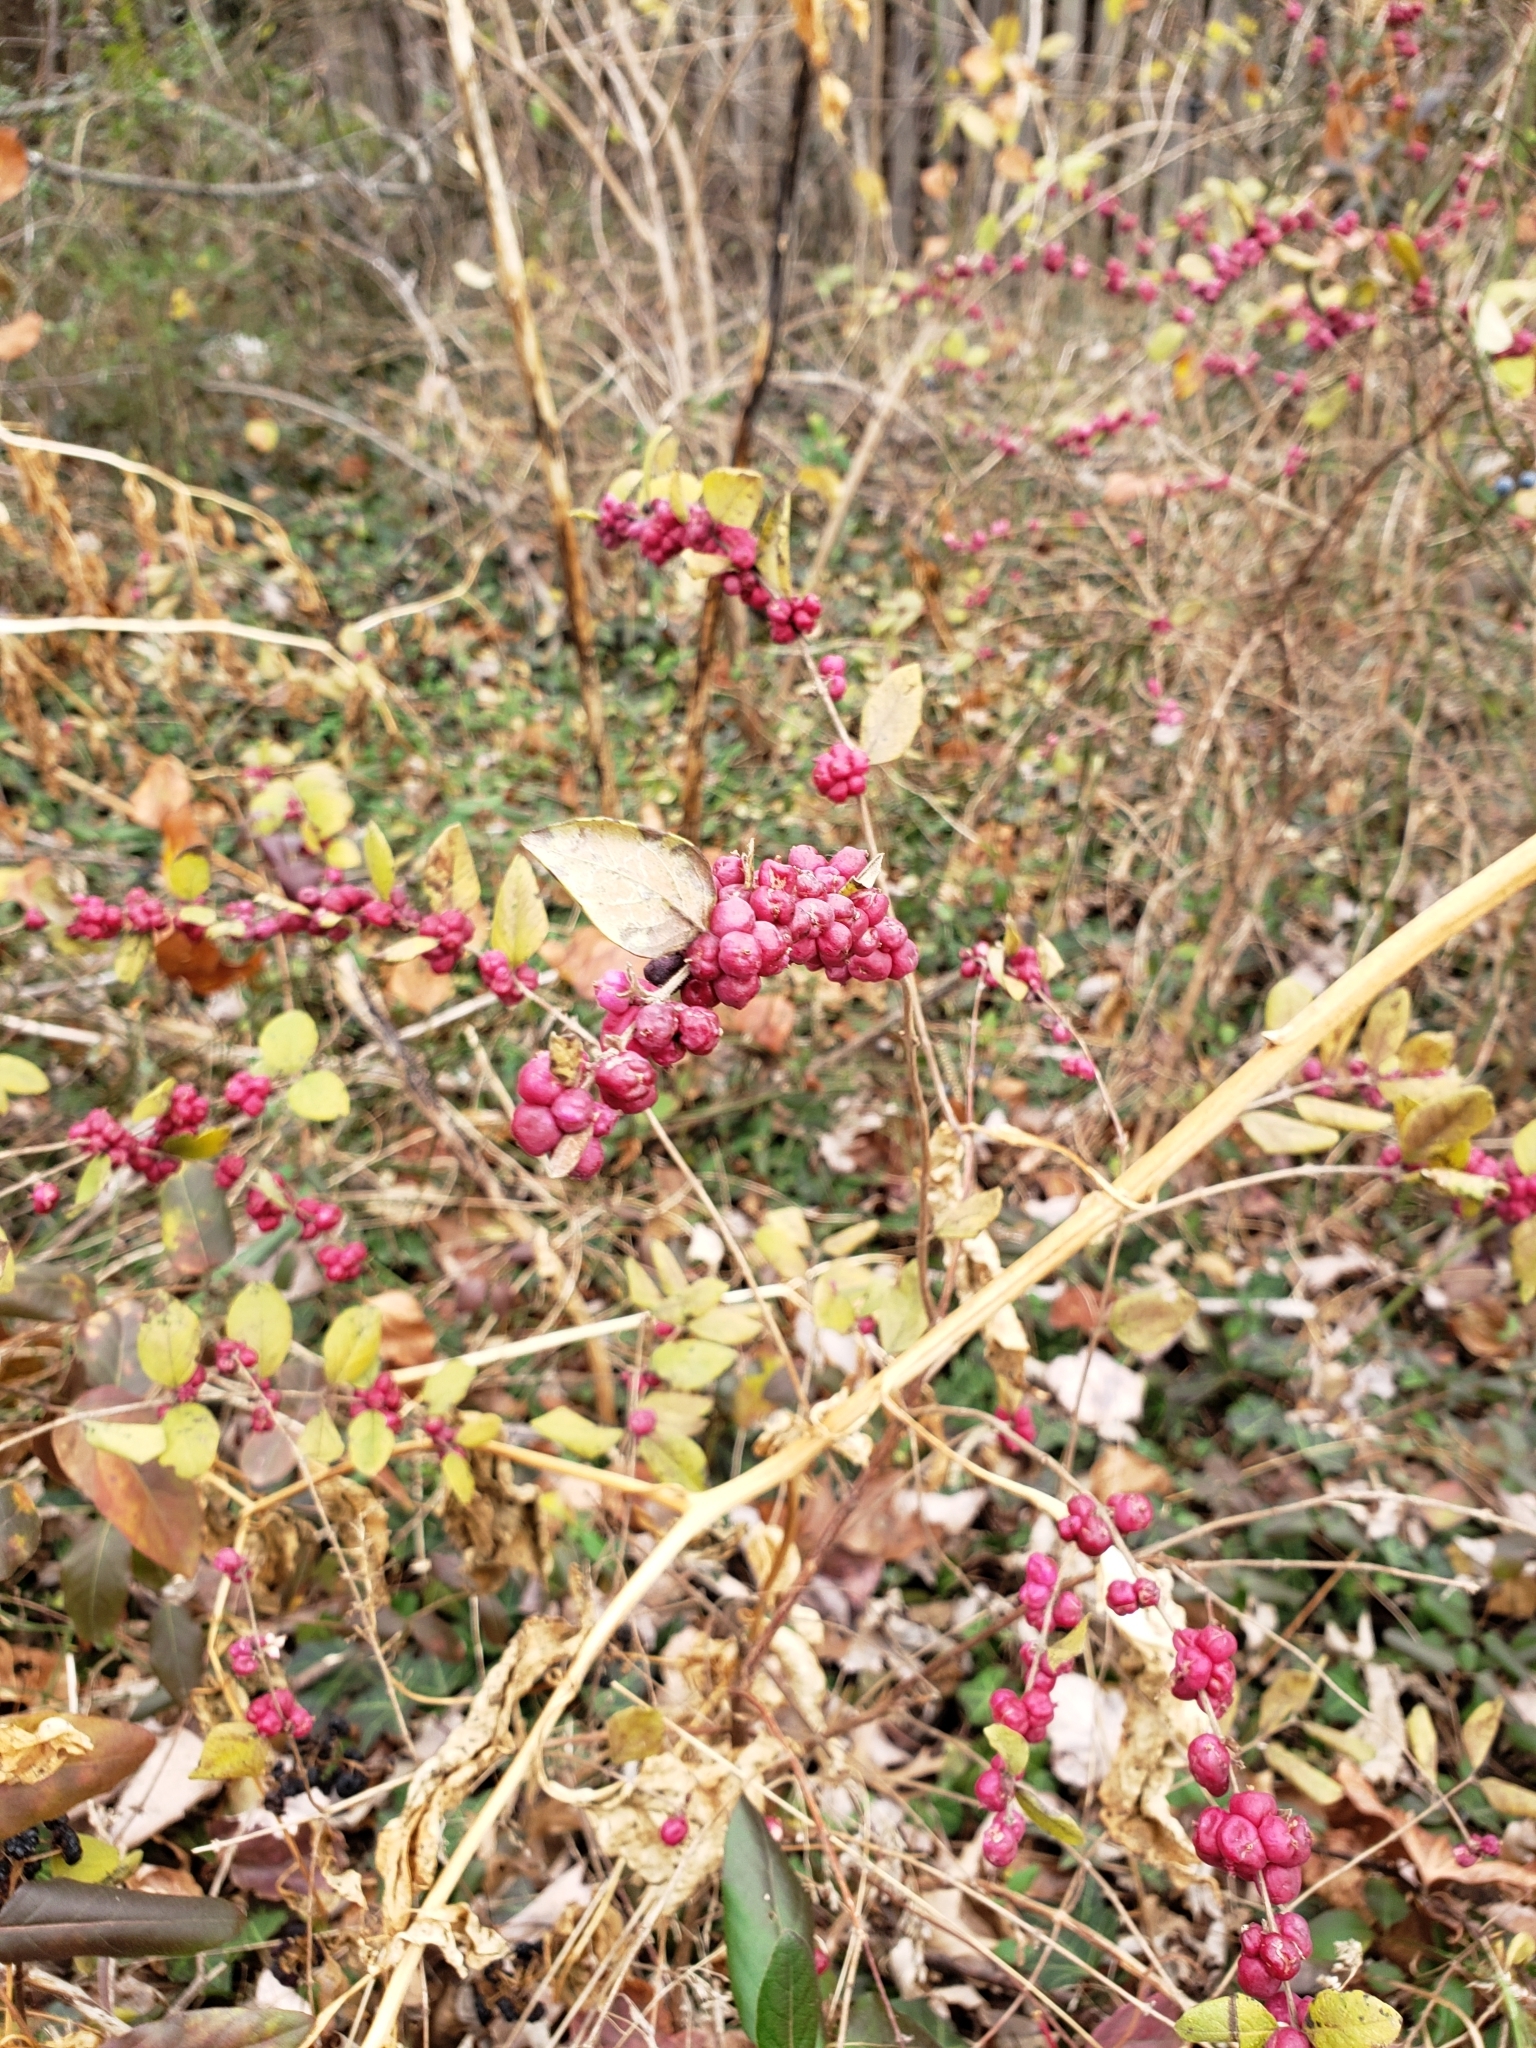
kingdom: Plantae
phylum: Tracheophyta
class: Magnoliopsida
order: Dipsacales
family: Caprifoliaceae
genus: Symphoricarpos
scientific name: Symphoricarpos orbiculatus
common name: Coralberry
